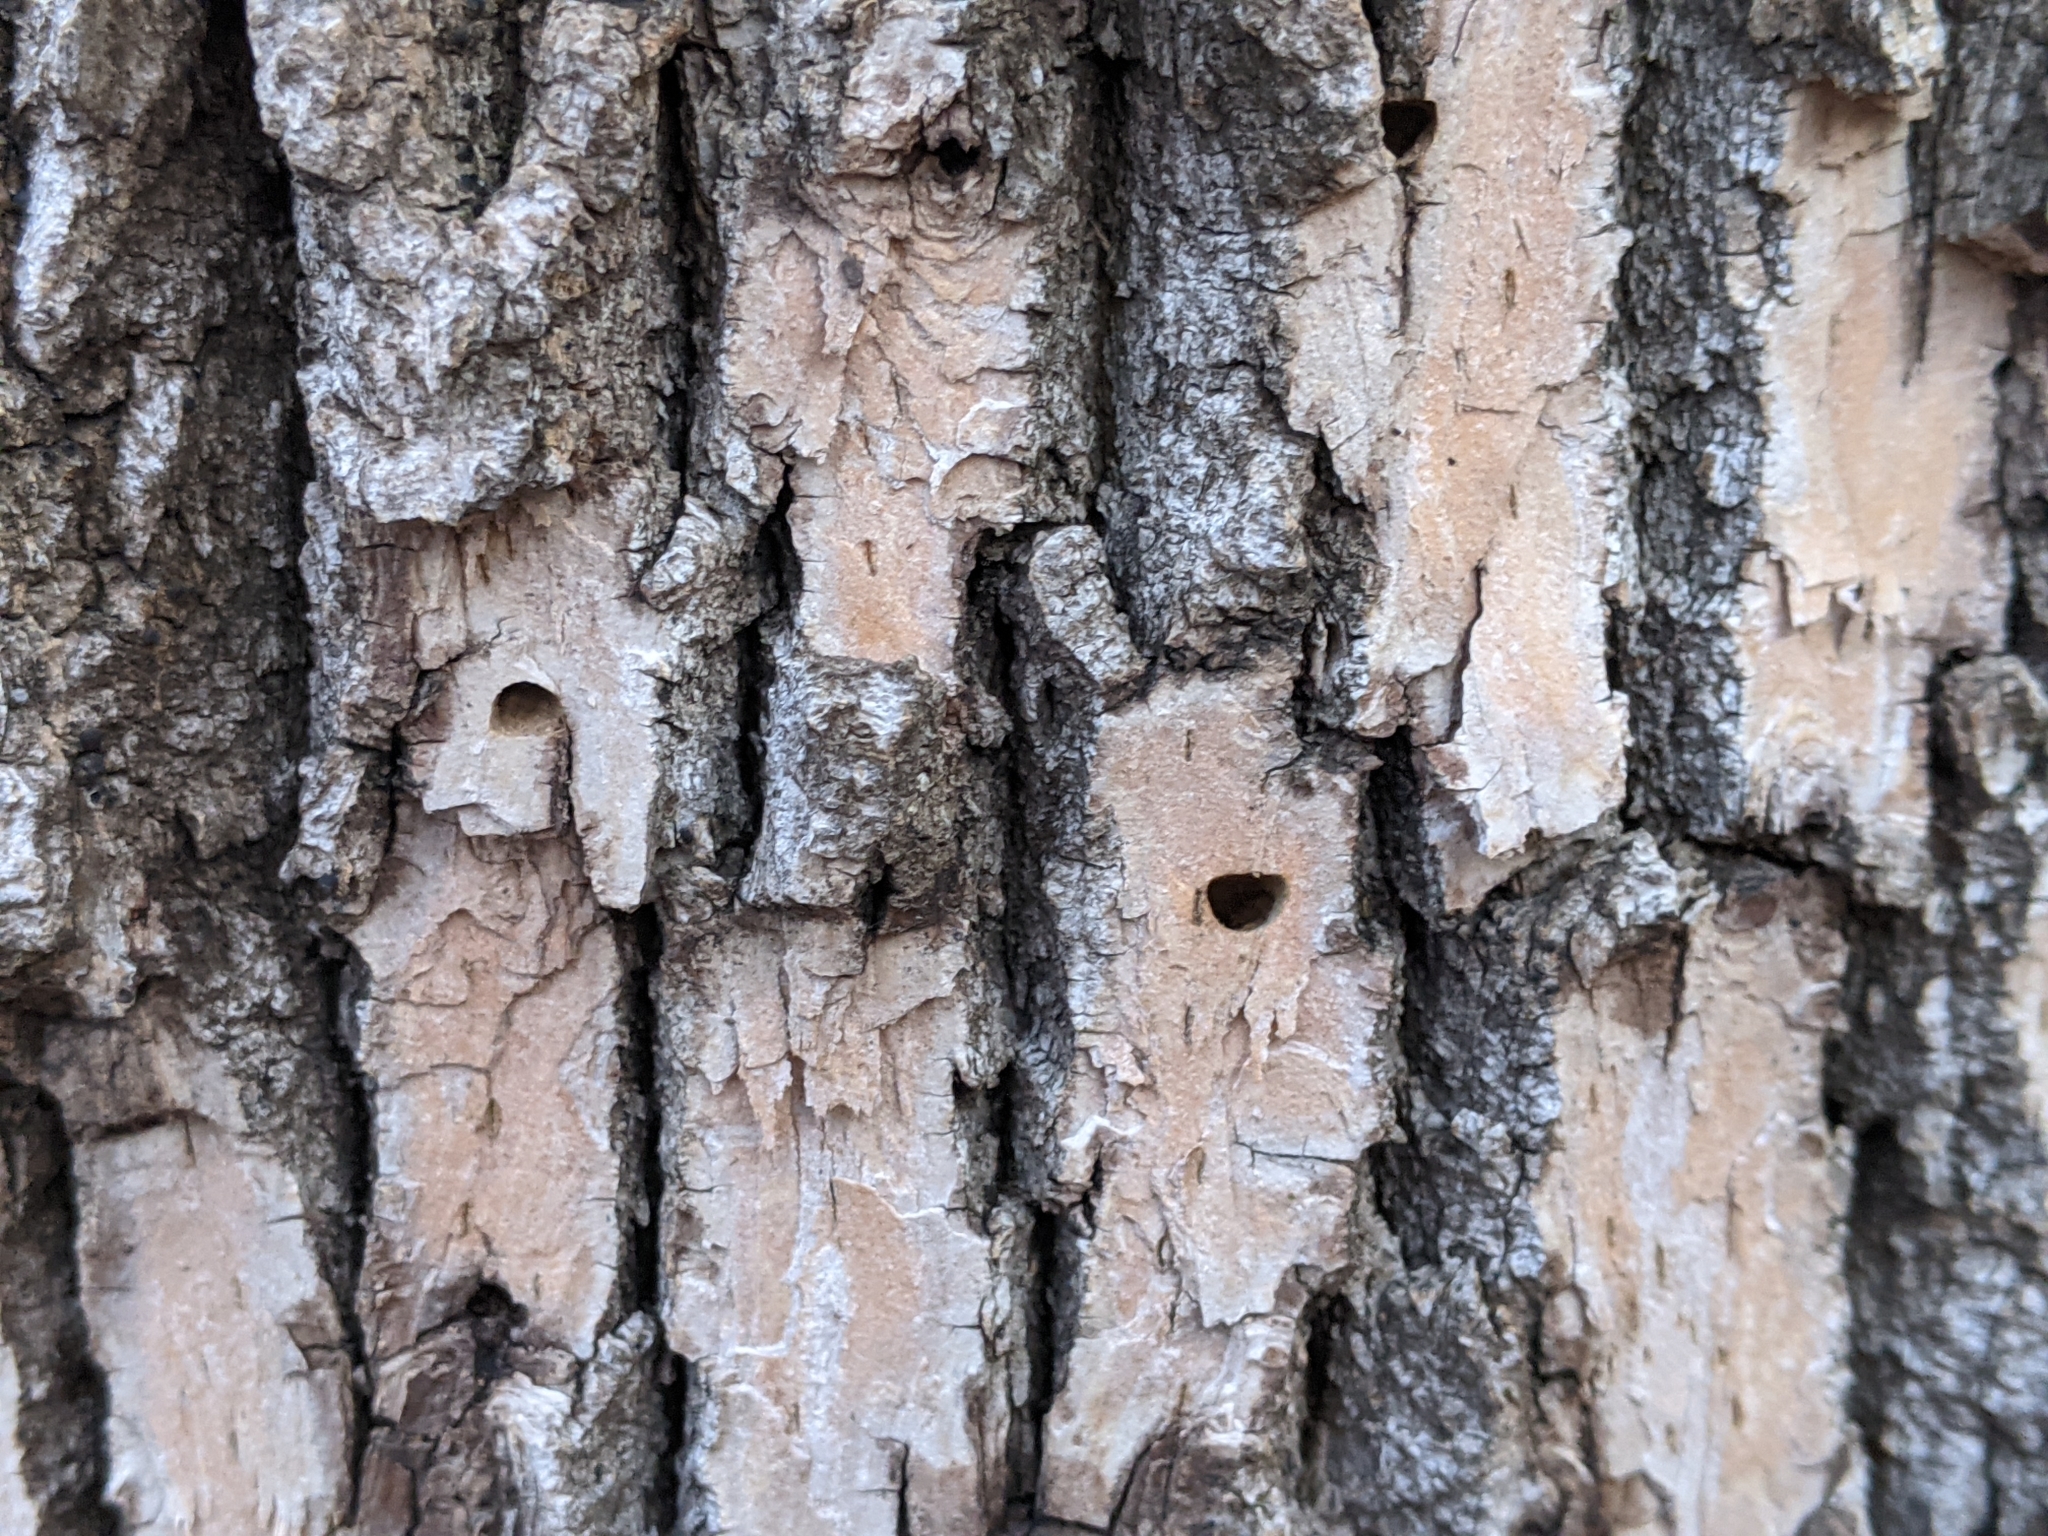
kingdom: Animalia
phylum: Arthropoda
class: Insecta
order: Coleoptera
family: Buprestidae
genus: Agrilus
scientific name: Agrilus planipennis
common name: Emerald ash borer
